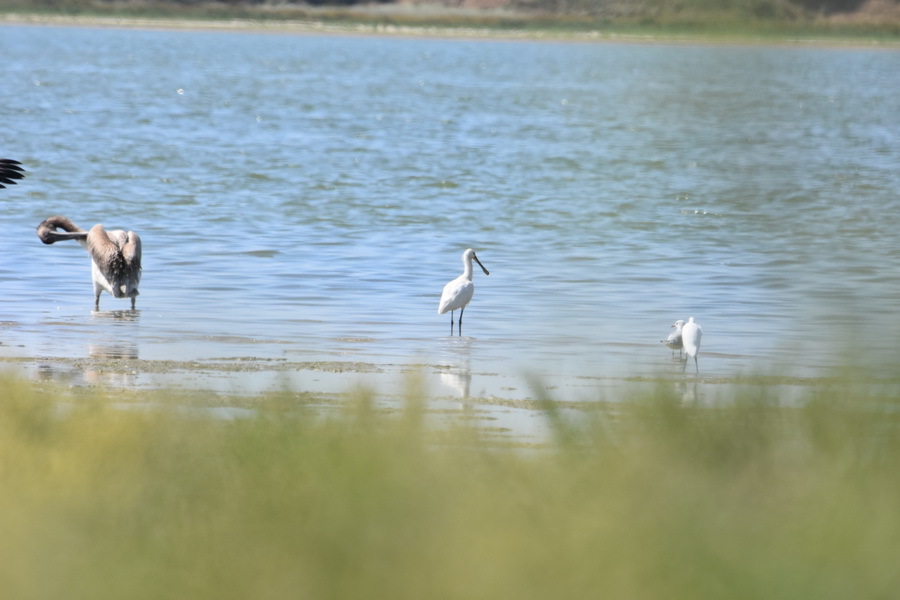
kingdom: Animalia
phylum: Chordata
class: Aves
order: Pelecaniformes
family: Threskiornithidae
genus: Platalea
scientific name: Platalea leucorodia
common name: Eurasian spoonbill
